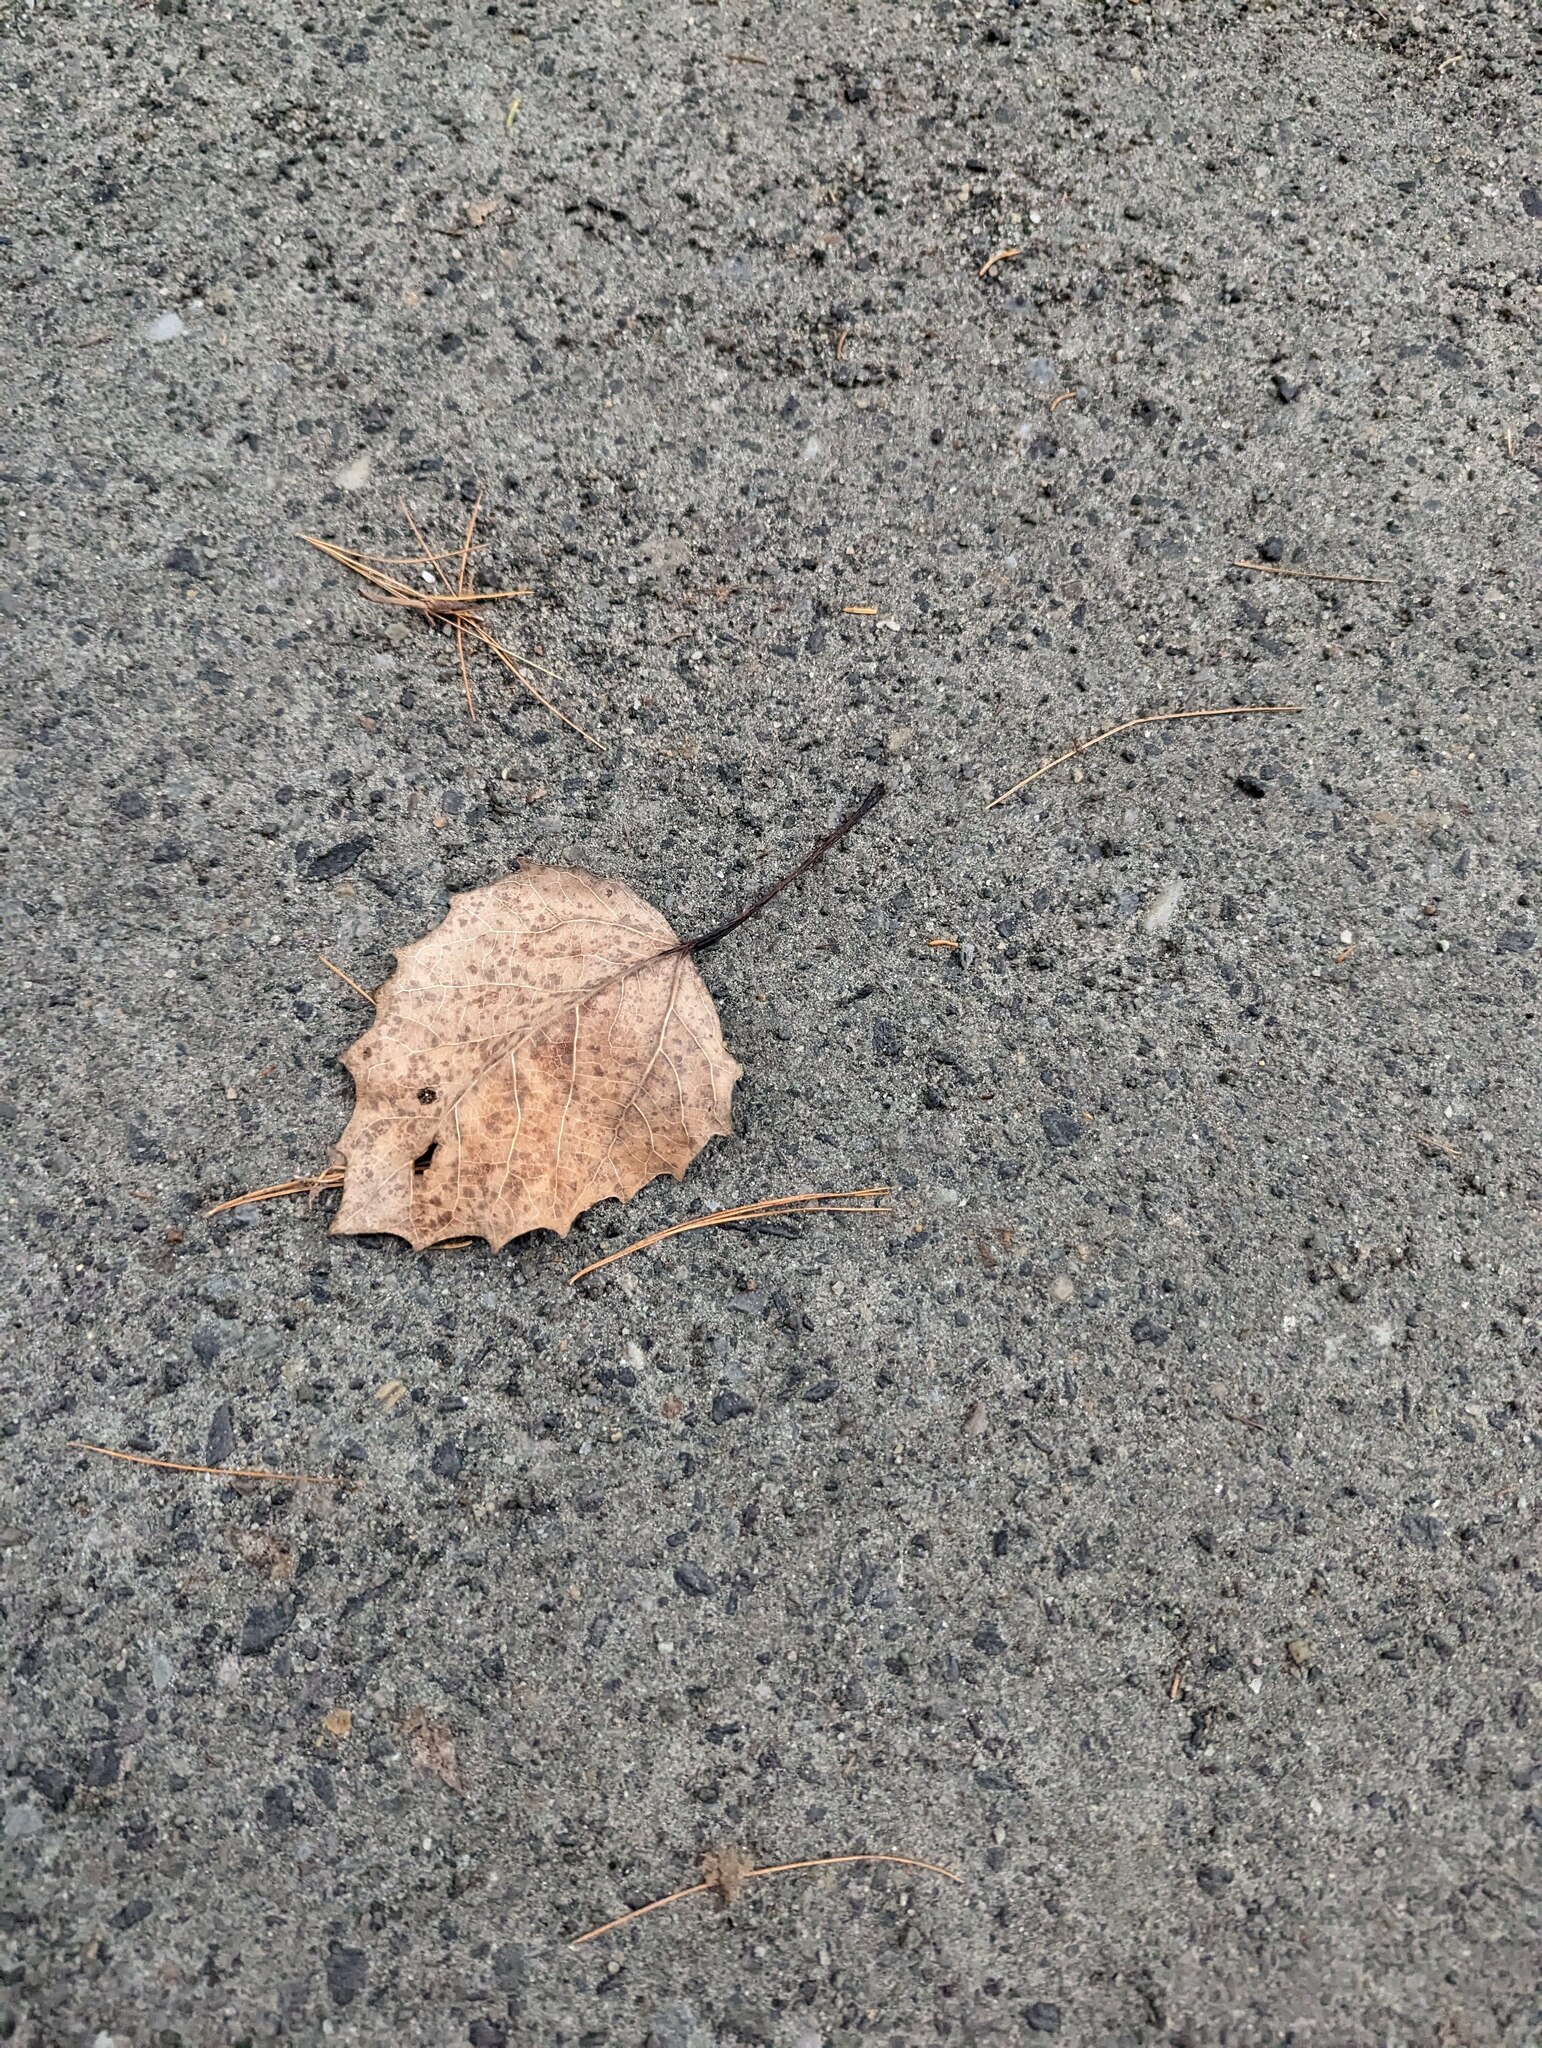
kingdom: Plantae
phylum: Tracheophyta
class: Magnoliopsida
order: Malpighiales
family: Salicaceae
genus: Populus
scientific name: Populus grandidentata
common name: Bigtooth aspen
